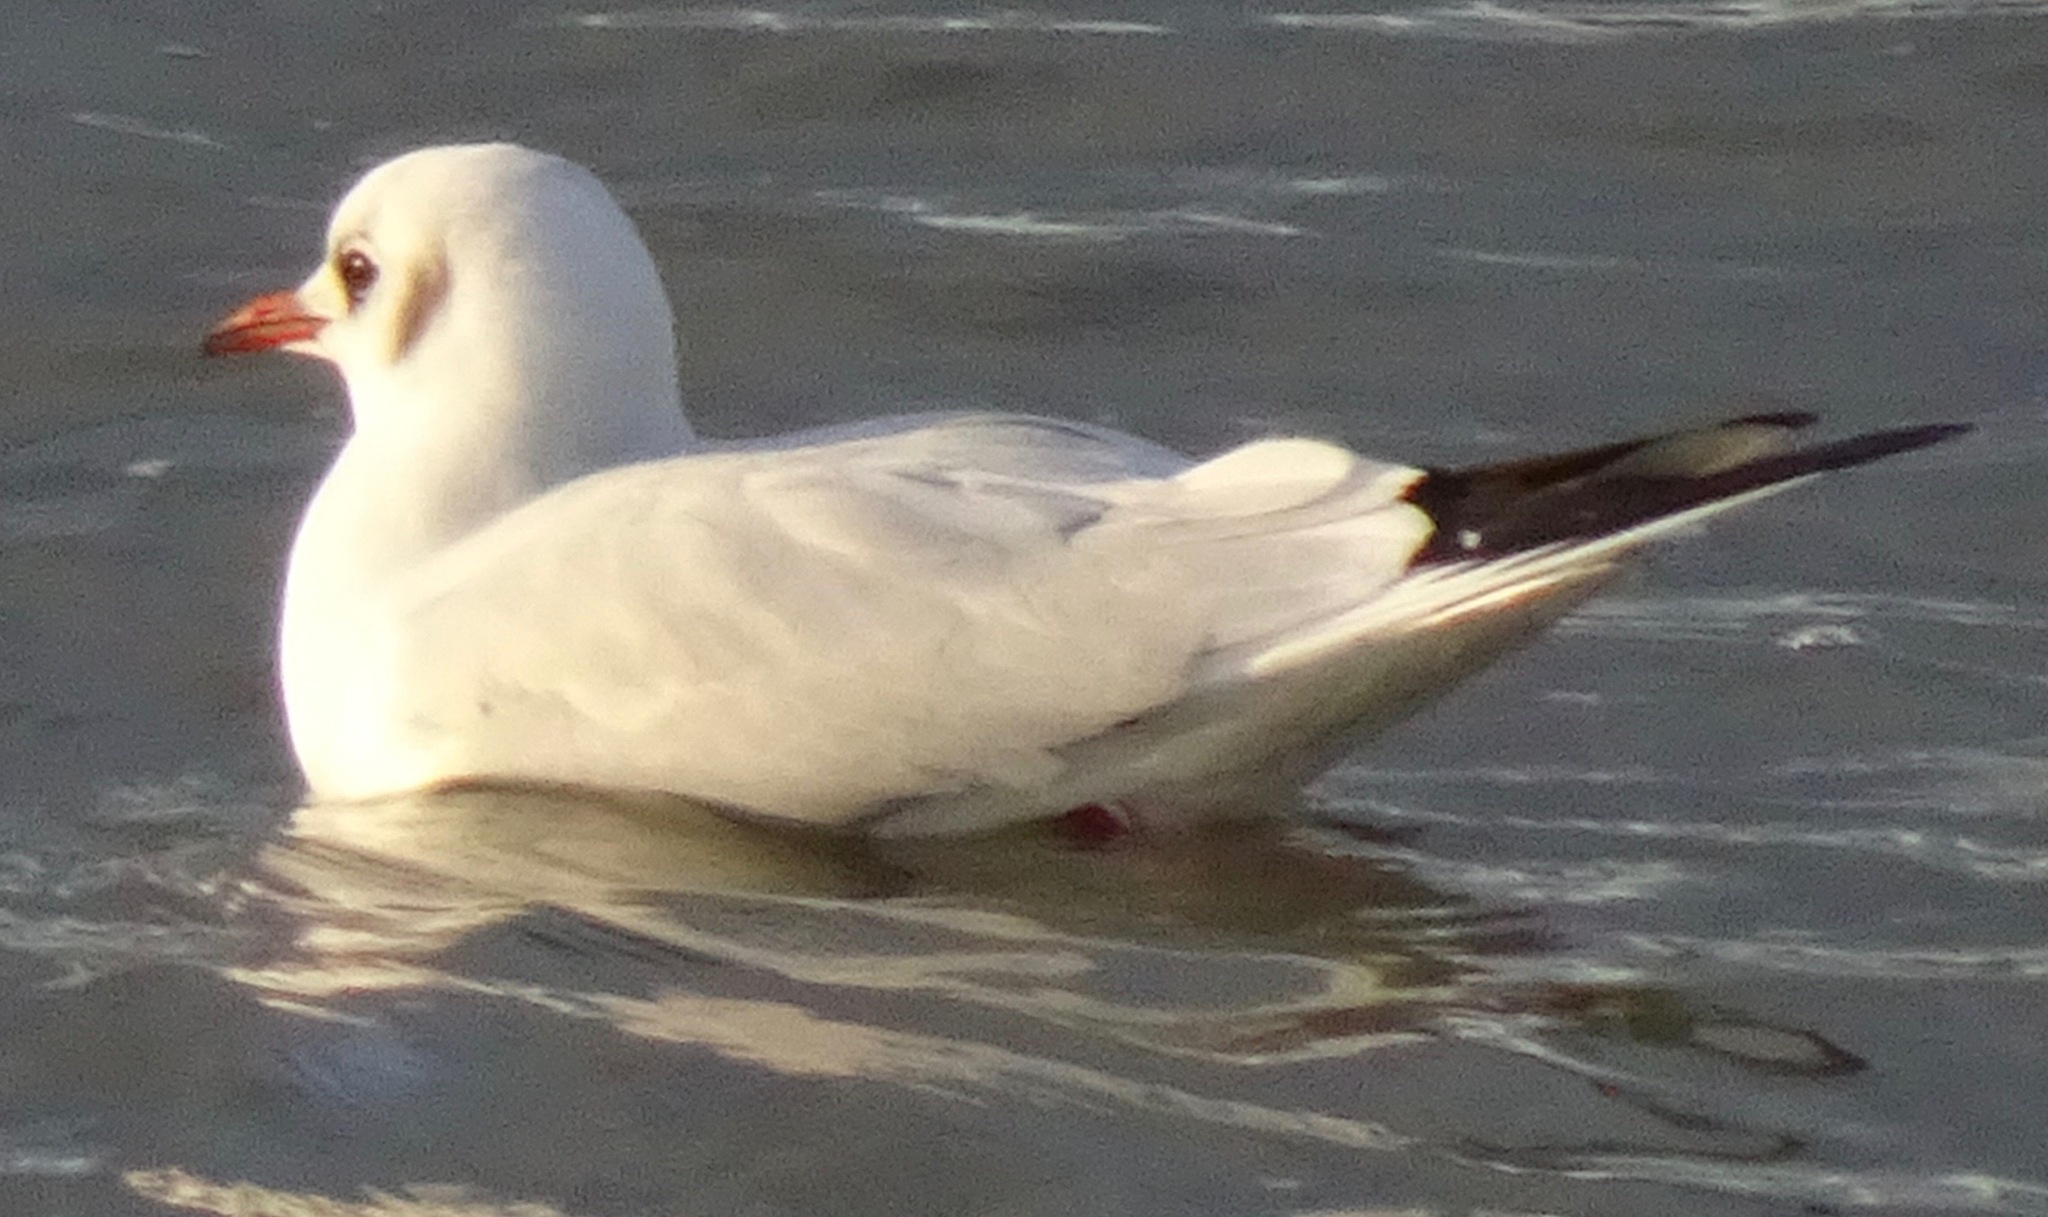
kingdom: Animalia
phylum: Chordata
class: Aves
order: Charadriiformes
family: Laridae
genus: Chroicocephalus
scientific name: Chroicocephalus ridibundus
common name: Black-headed gull
